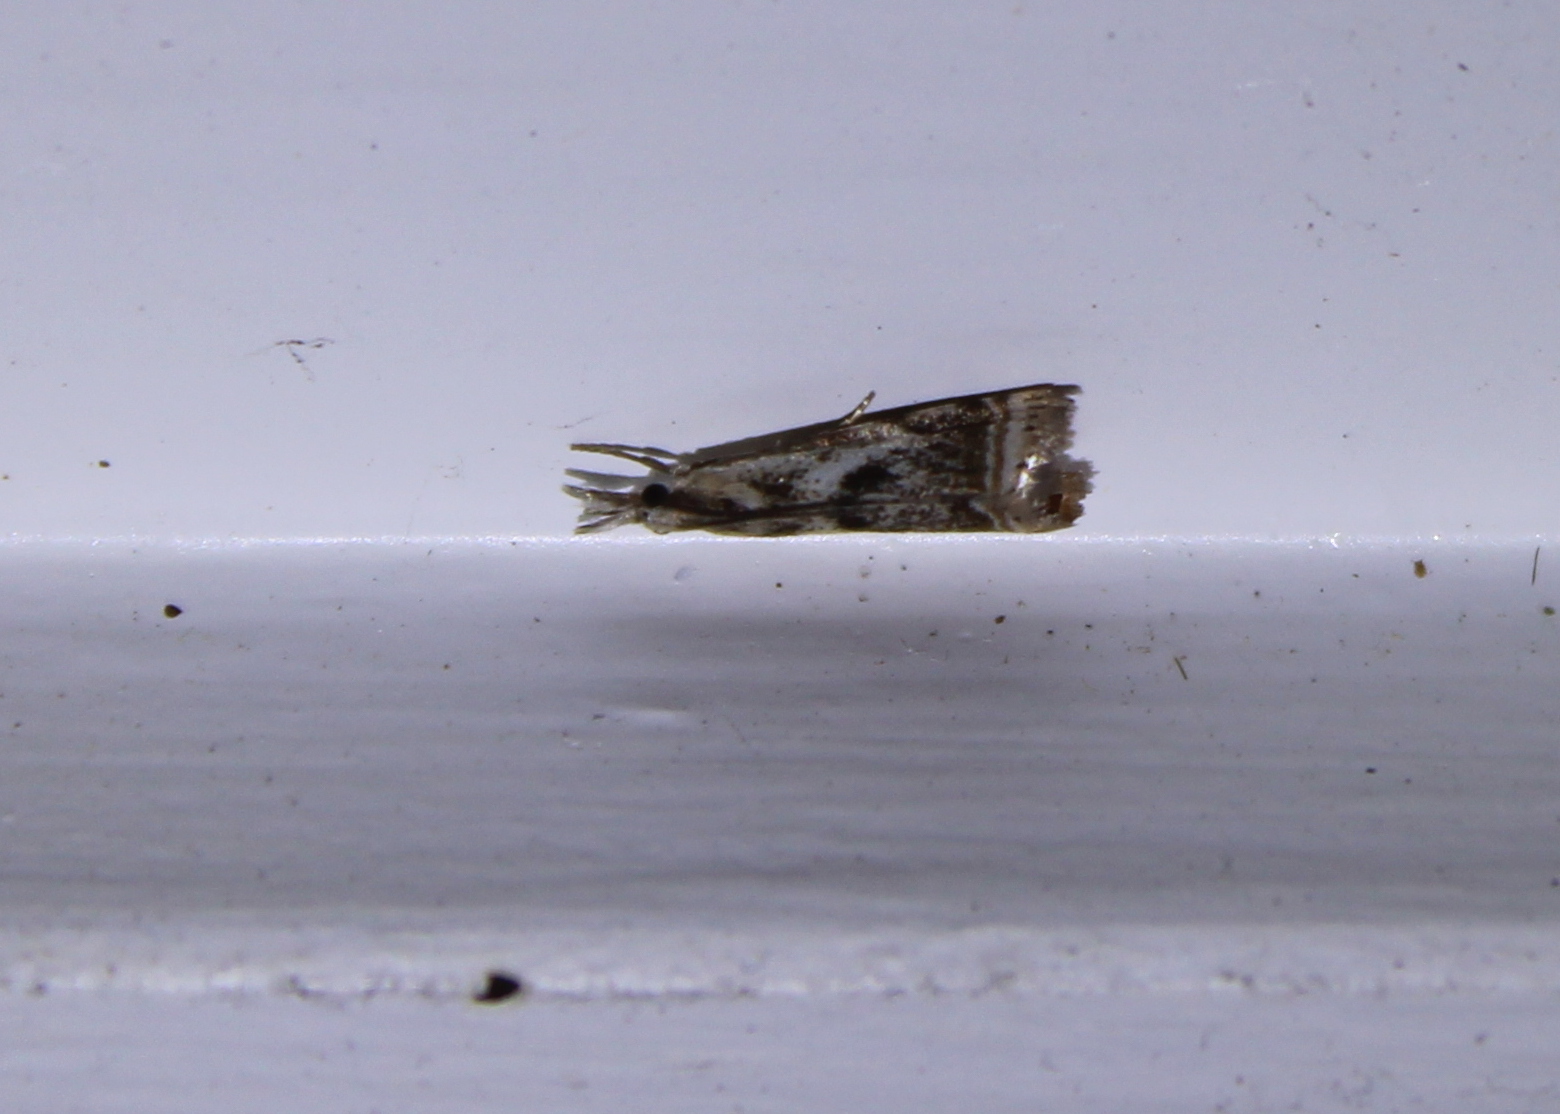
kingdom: Animalia
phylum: Arthropoda
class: Insecta
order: Lepidoptera
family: Crambidae
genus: Microcrambus
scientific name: Microcrambus elegans
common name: Elegant grass-veneer
